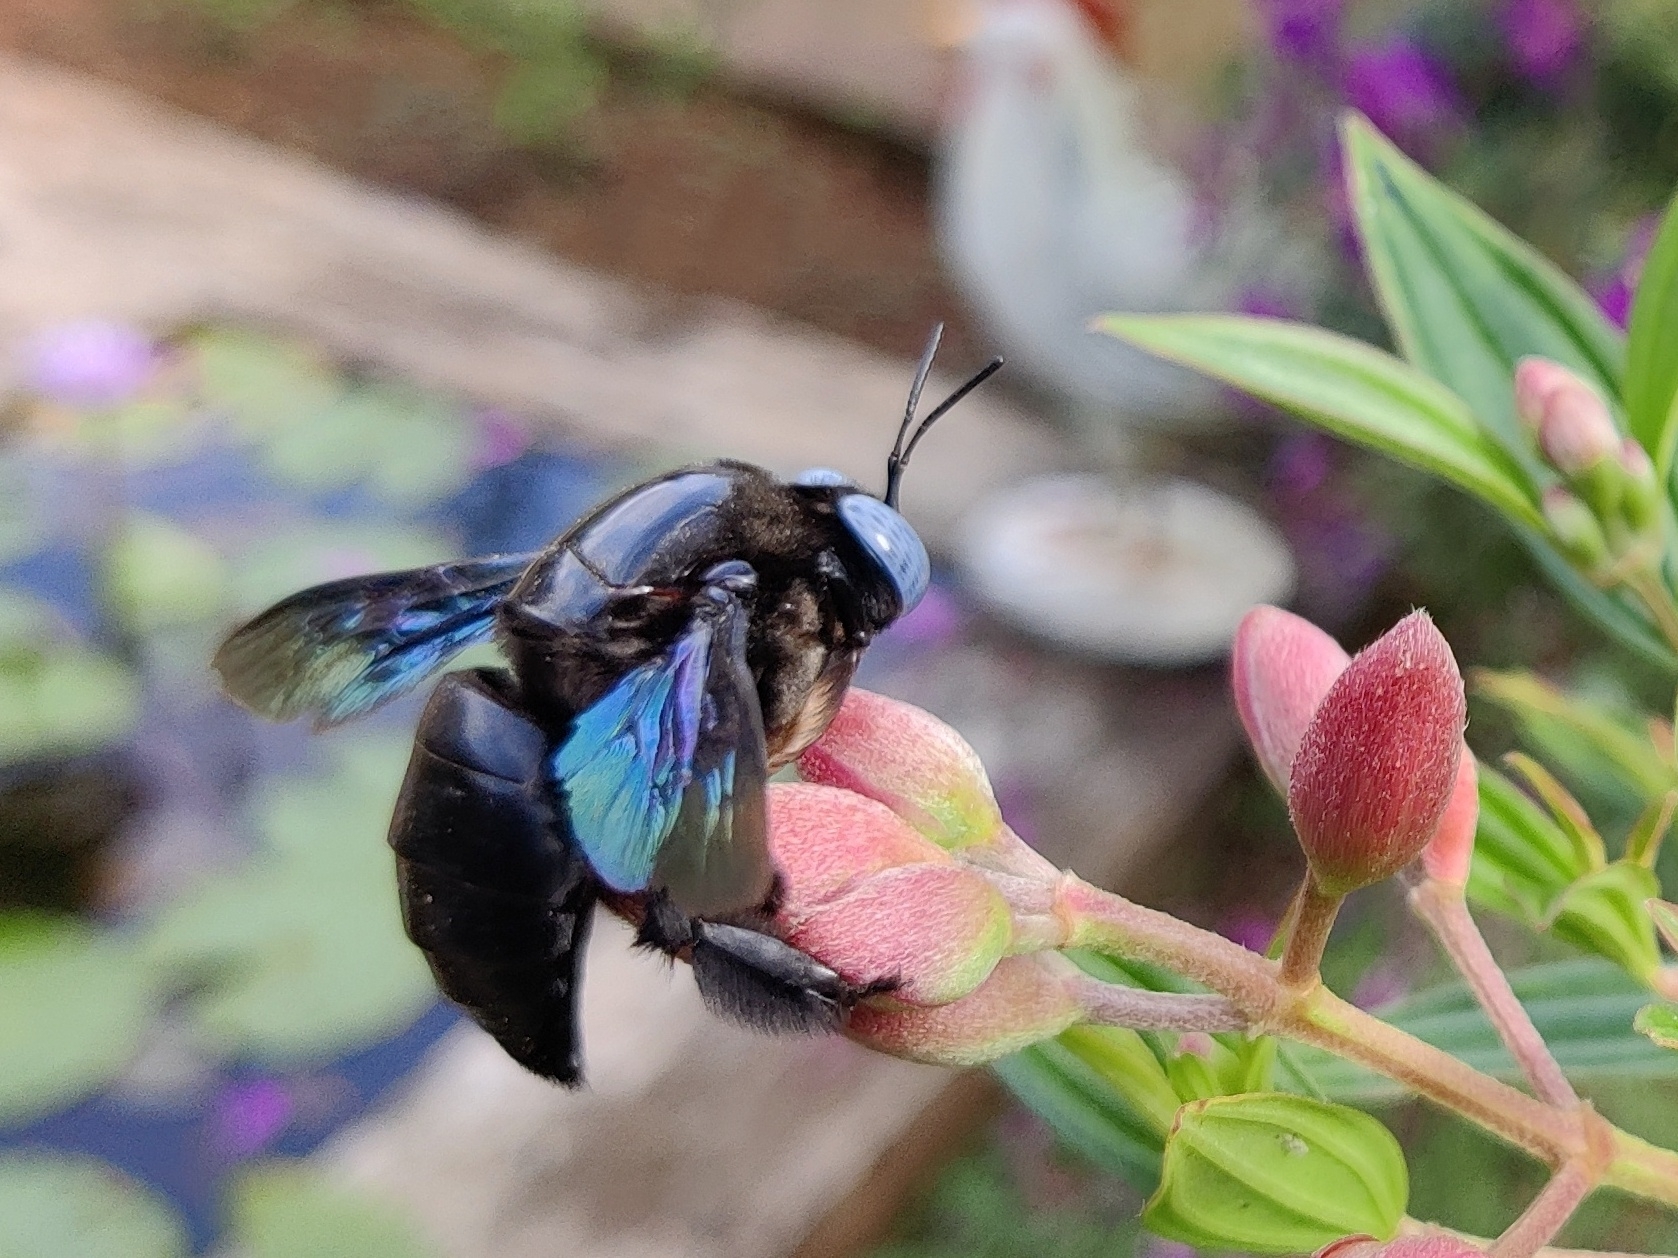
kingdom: Animalia
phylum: Arthropoda
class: Insecta
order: Hymenoptera
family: Apidae
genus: Xylocopa
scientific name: Xylocopa tenuiscapa
